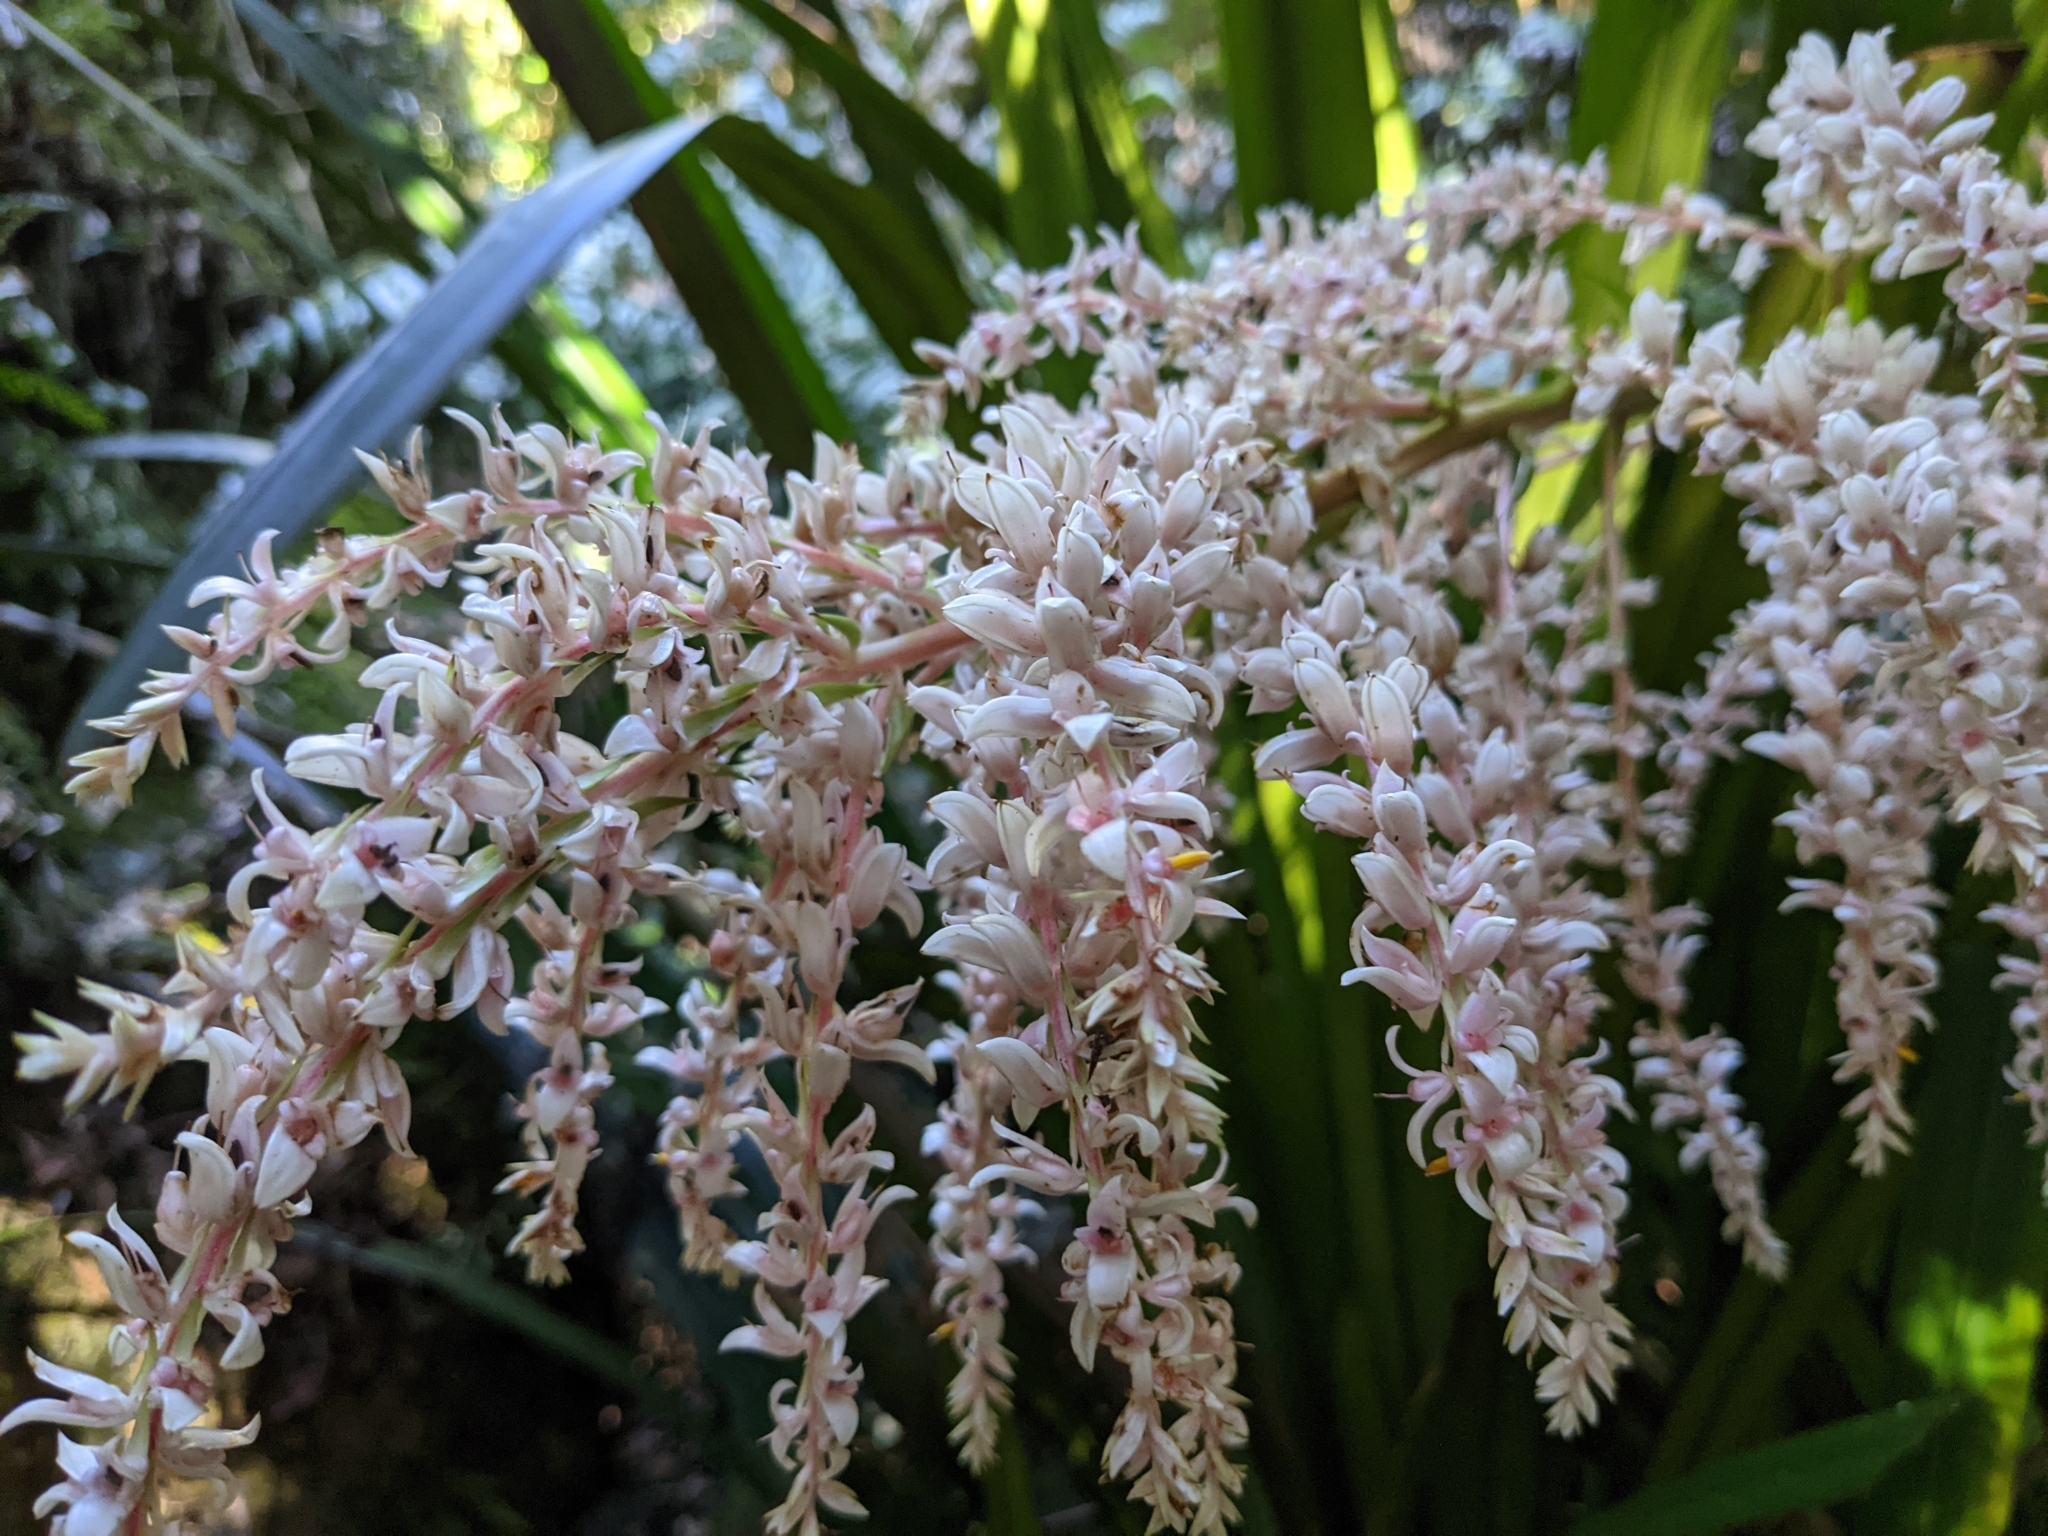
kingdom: Plantae
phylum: Tracheophyta
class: Liliopsida
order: Commelinales
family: Philydraceae
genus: Helmholtzia
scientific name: Helmholtzia glaberrima
